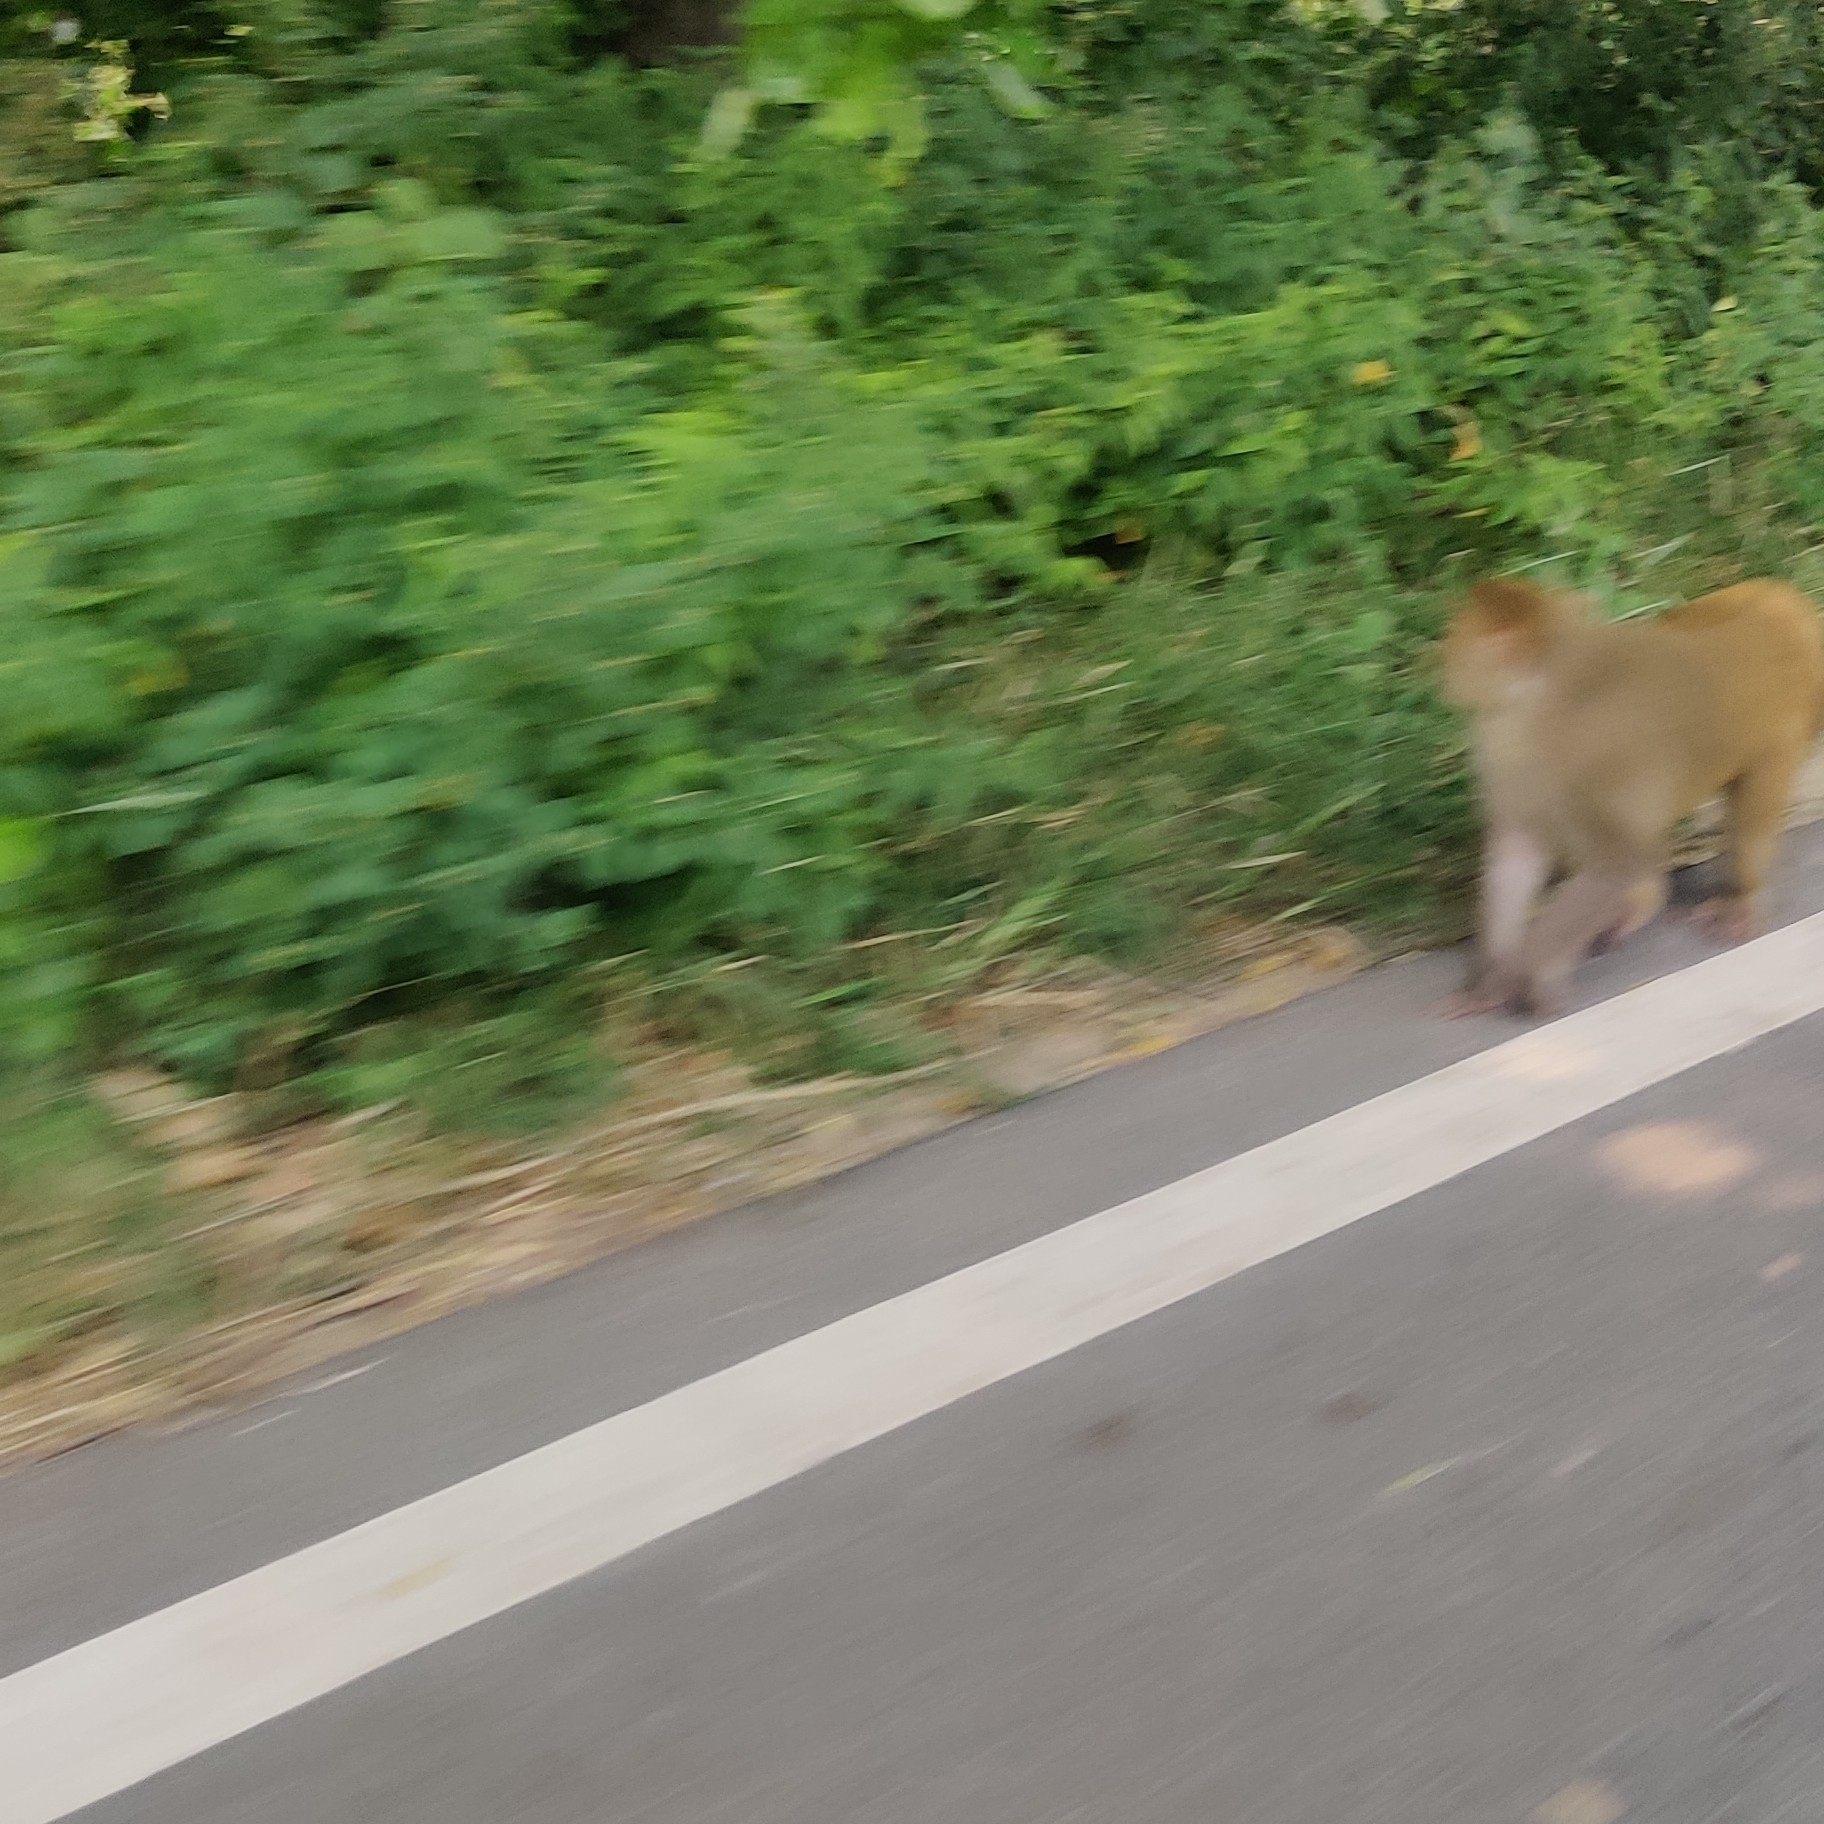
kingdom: Animalia
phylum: Chordata
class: Mammalia
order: Primates
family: Cercopithecidae
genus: Macaca
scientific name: Macaca mulatta
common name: Rhesus monkey
